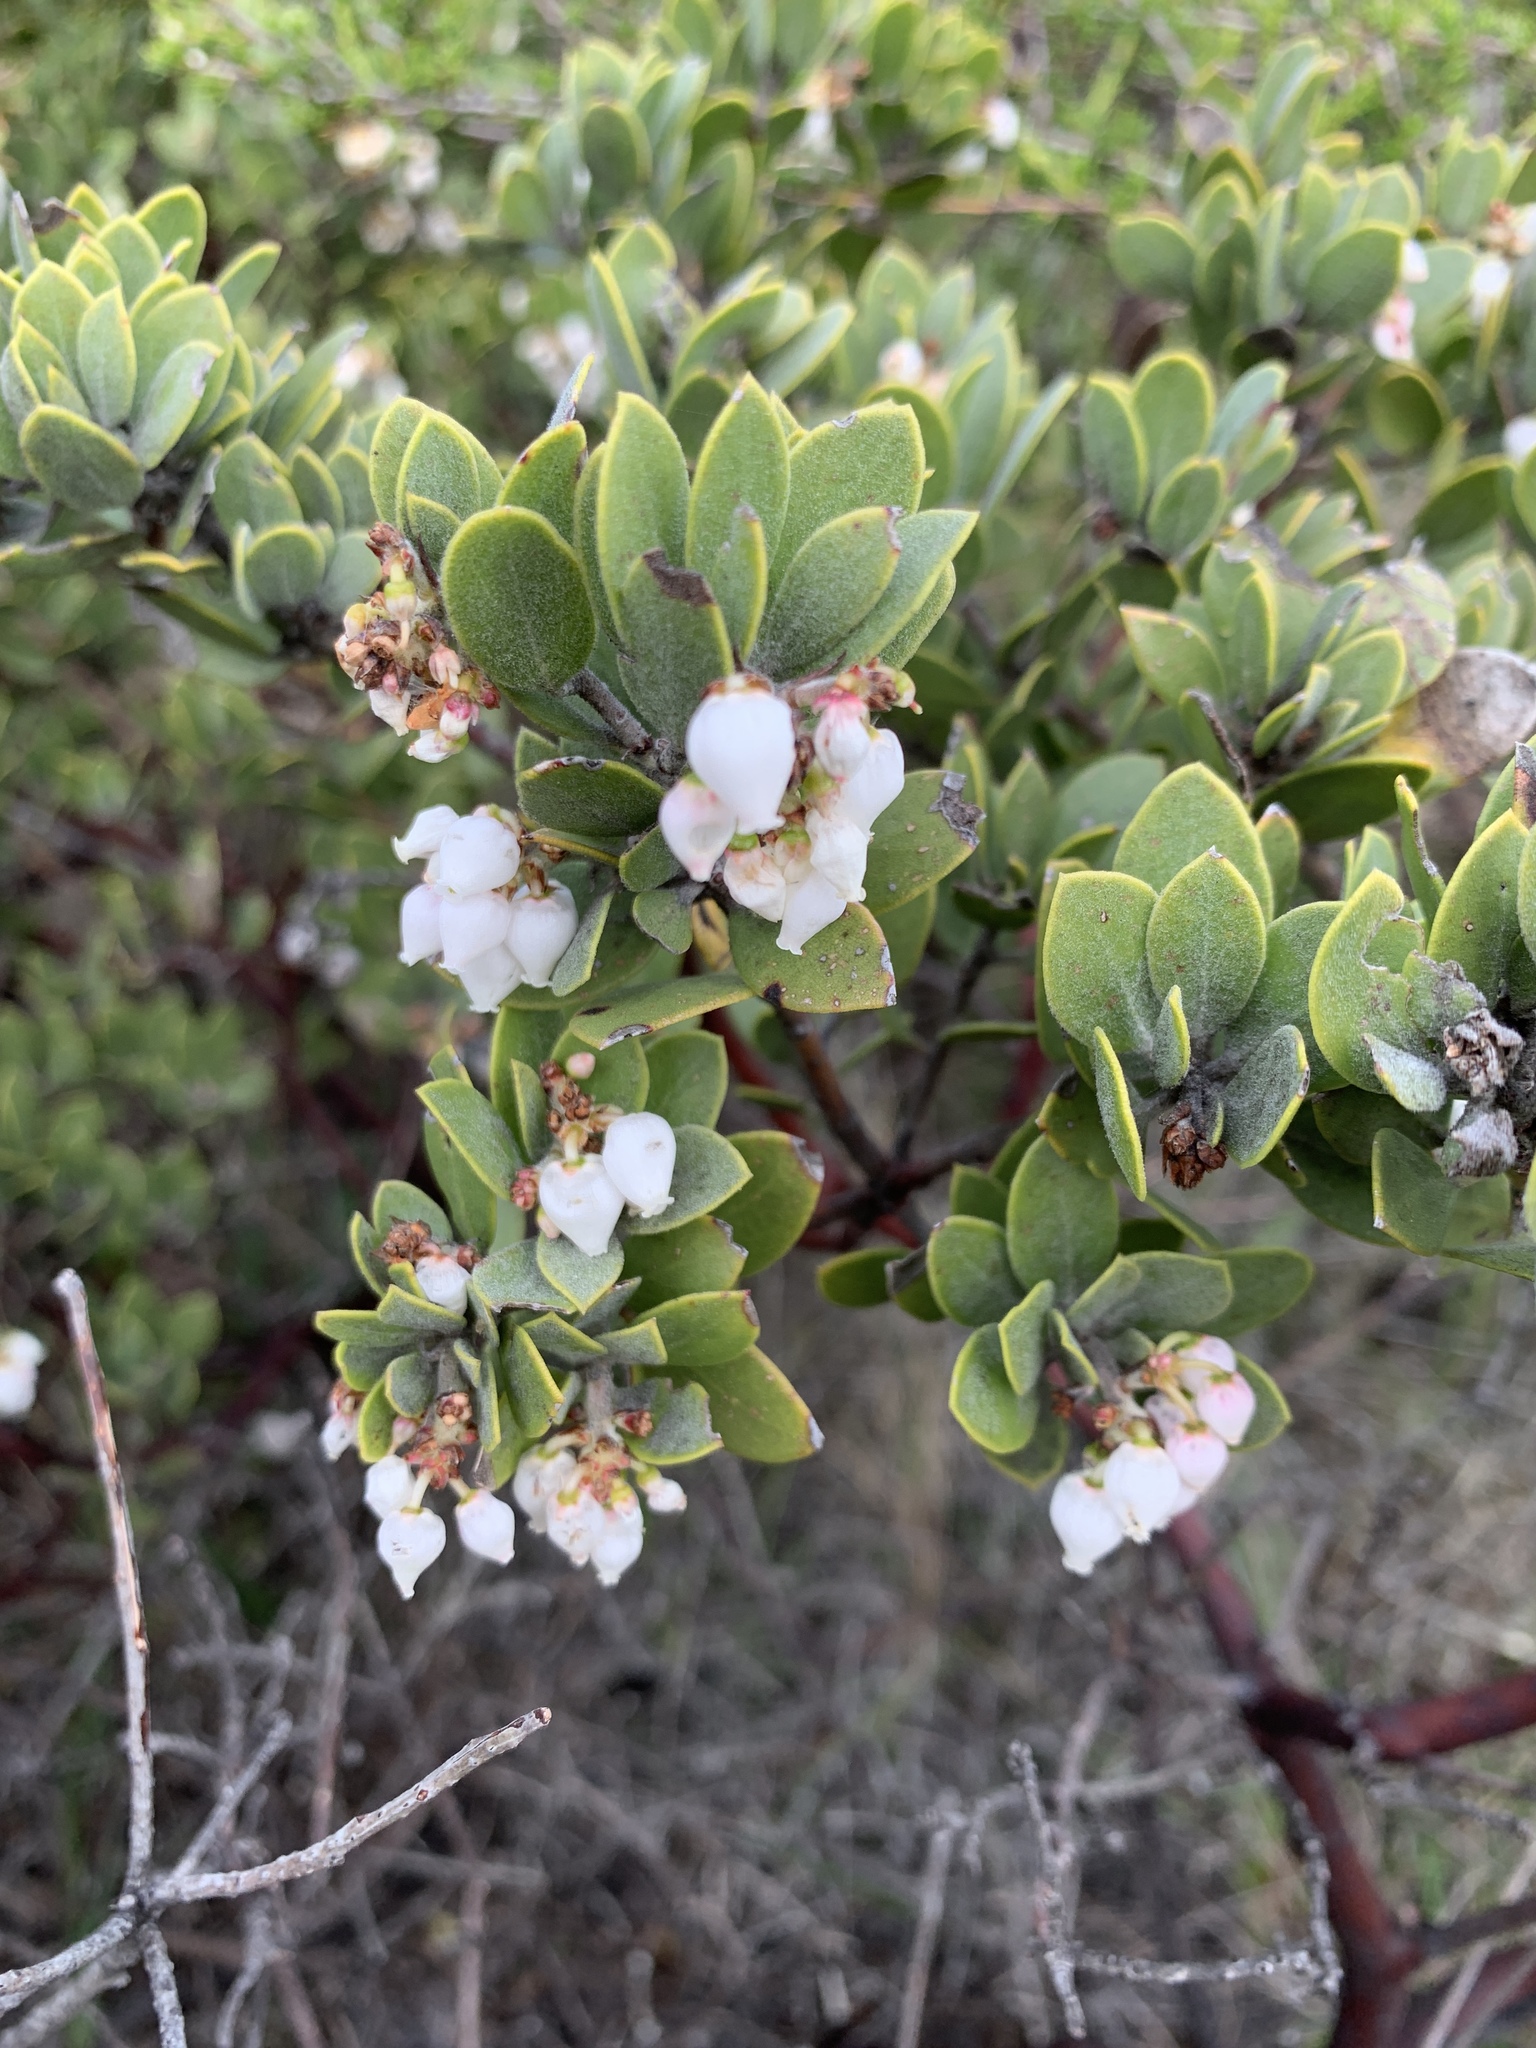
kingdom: Plantae
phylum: Tracheophyta
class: Magnoliopsida
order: Ericales
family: Ericaceae
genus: Arctostaphylos
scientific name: Arctostaphylos montana
